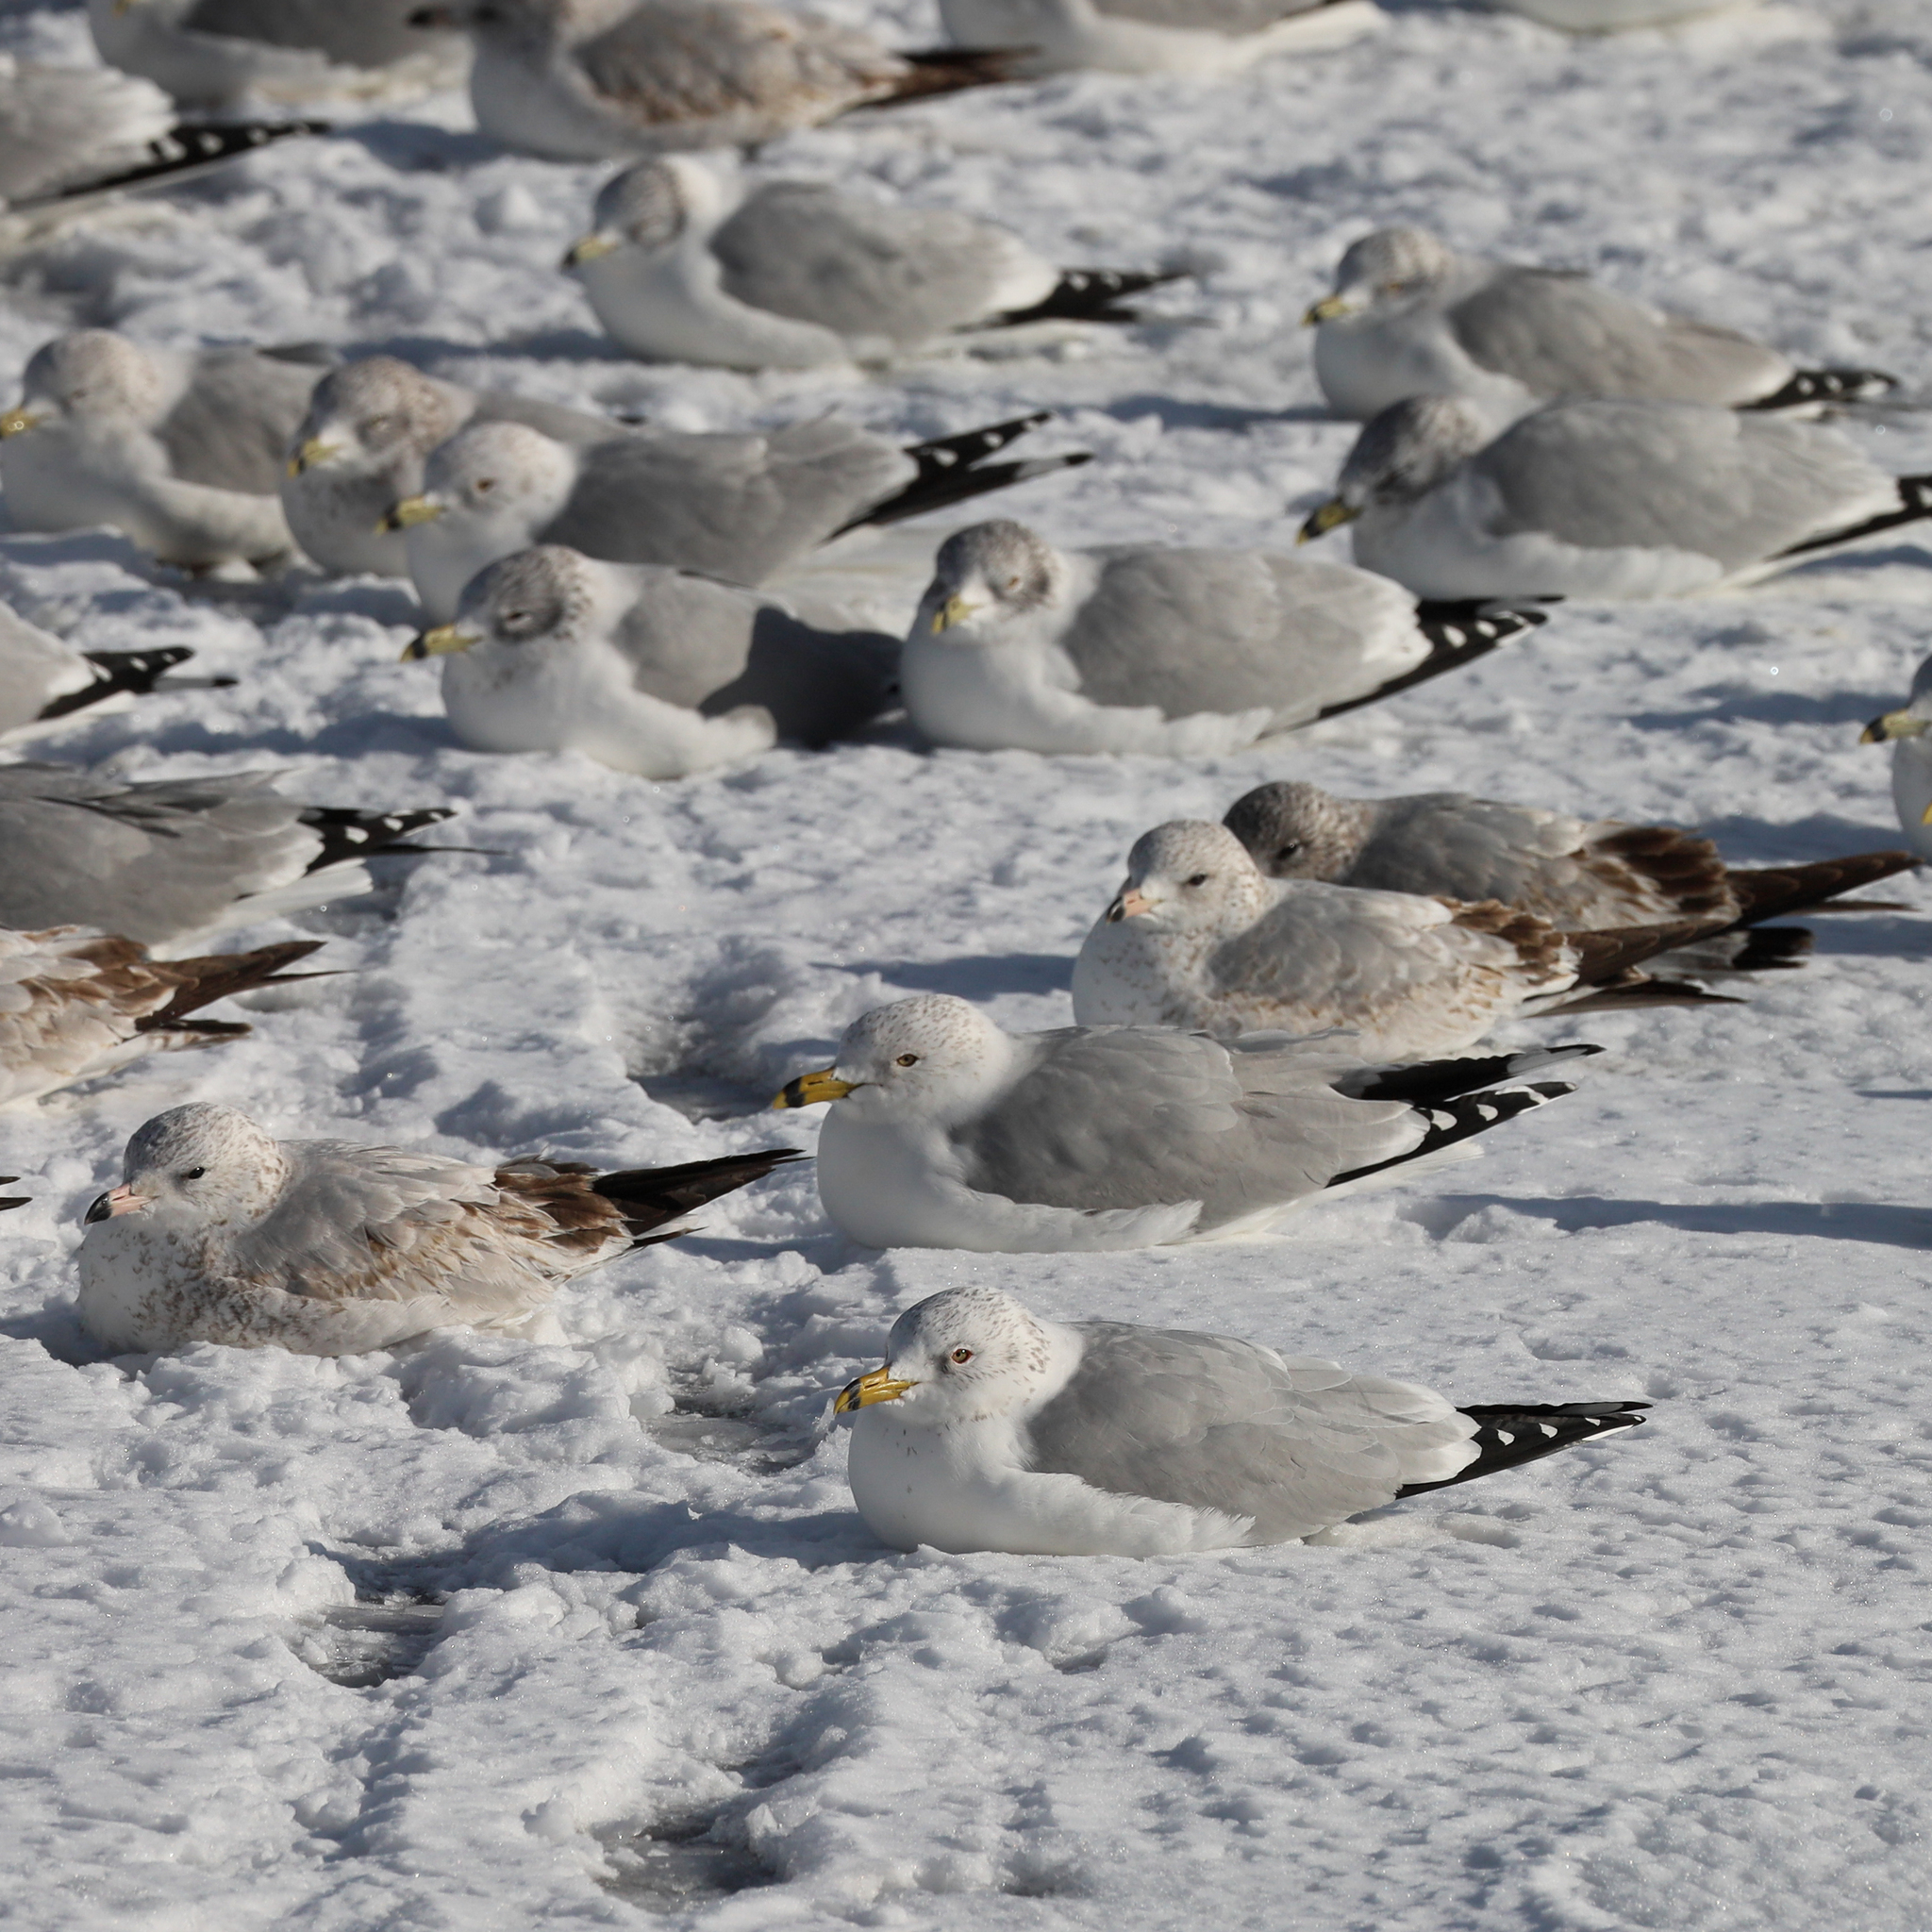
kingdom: Animalia
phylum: Chordata
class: Aves
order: Charadriiformes
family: Laridae
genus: Larus
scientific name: Larus delawarensis
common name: Ring-billed gull
